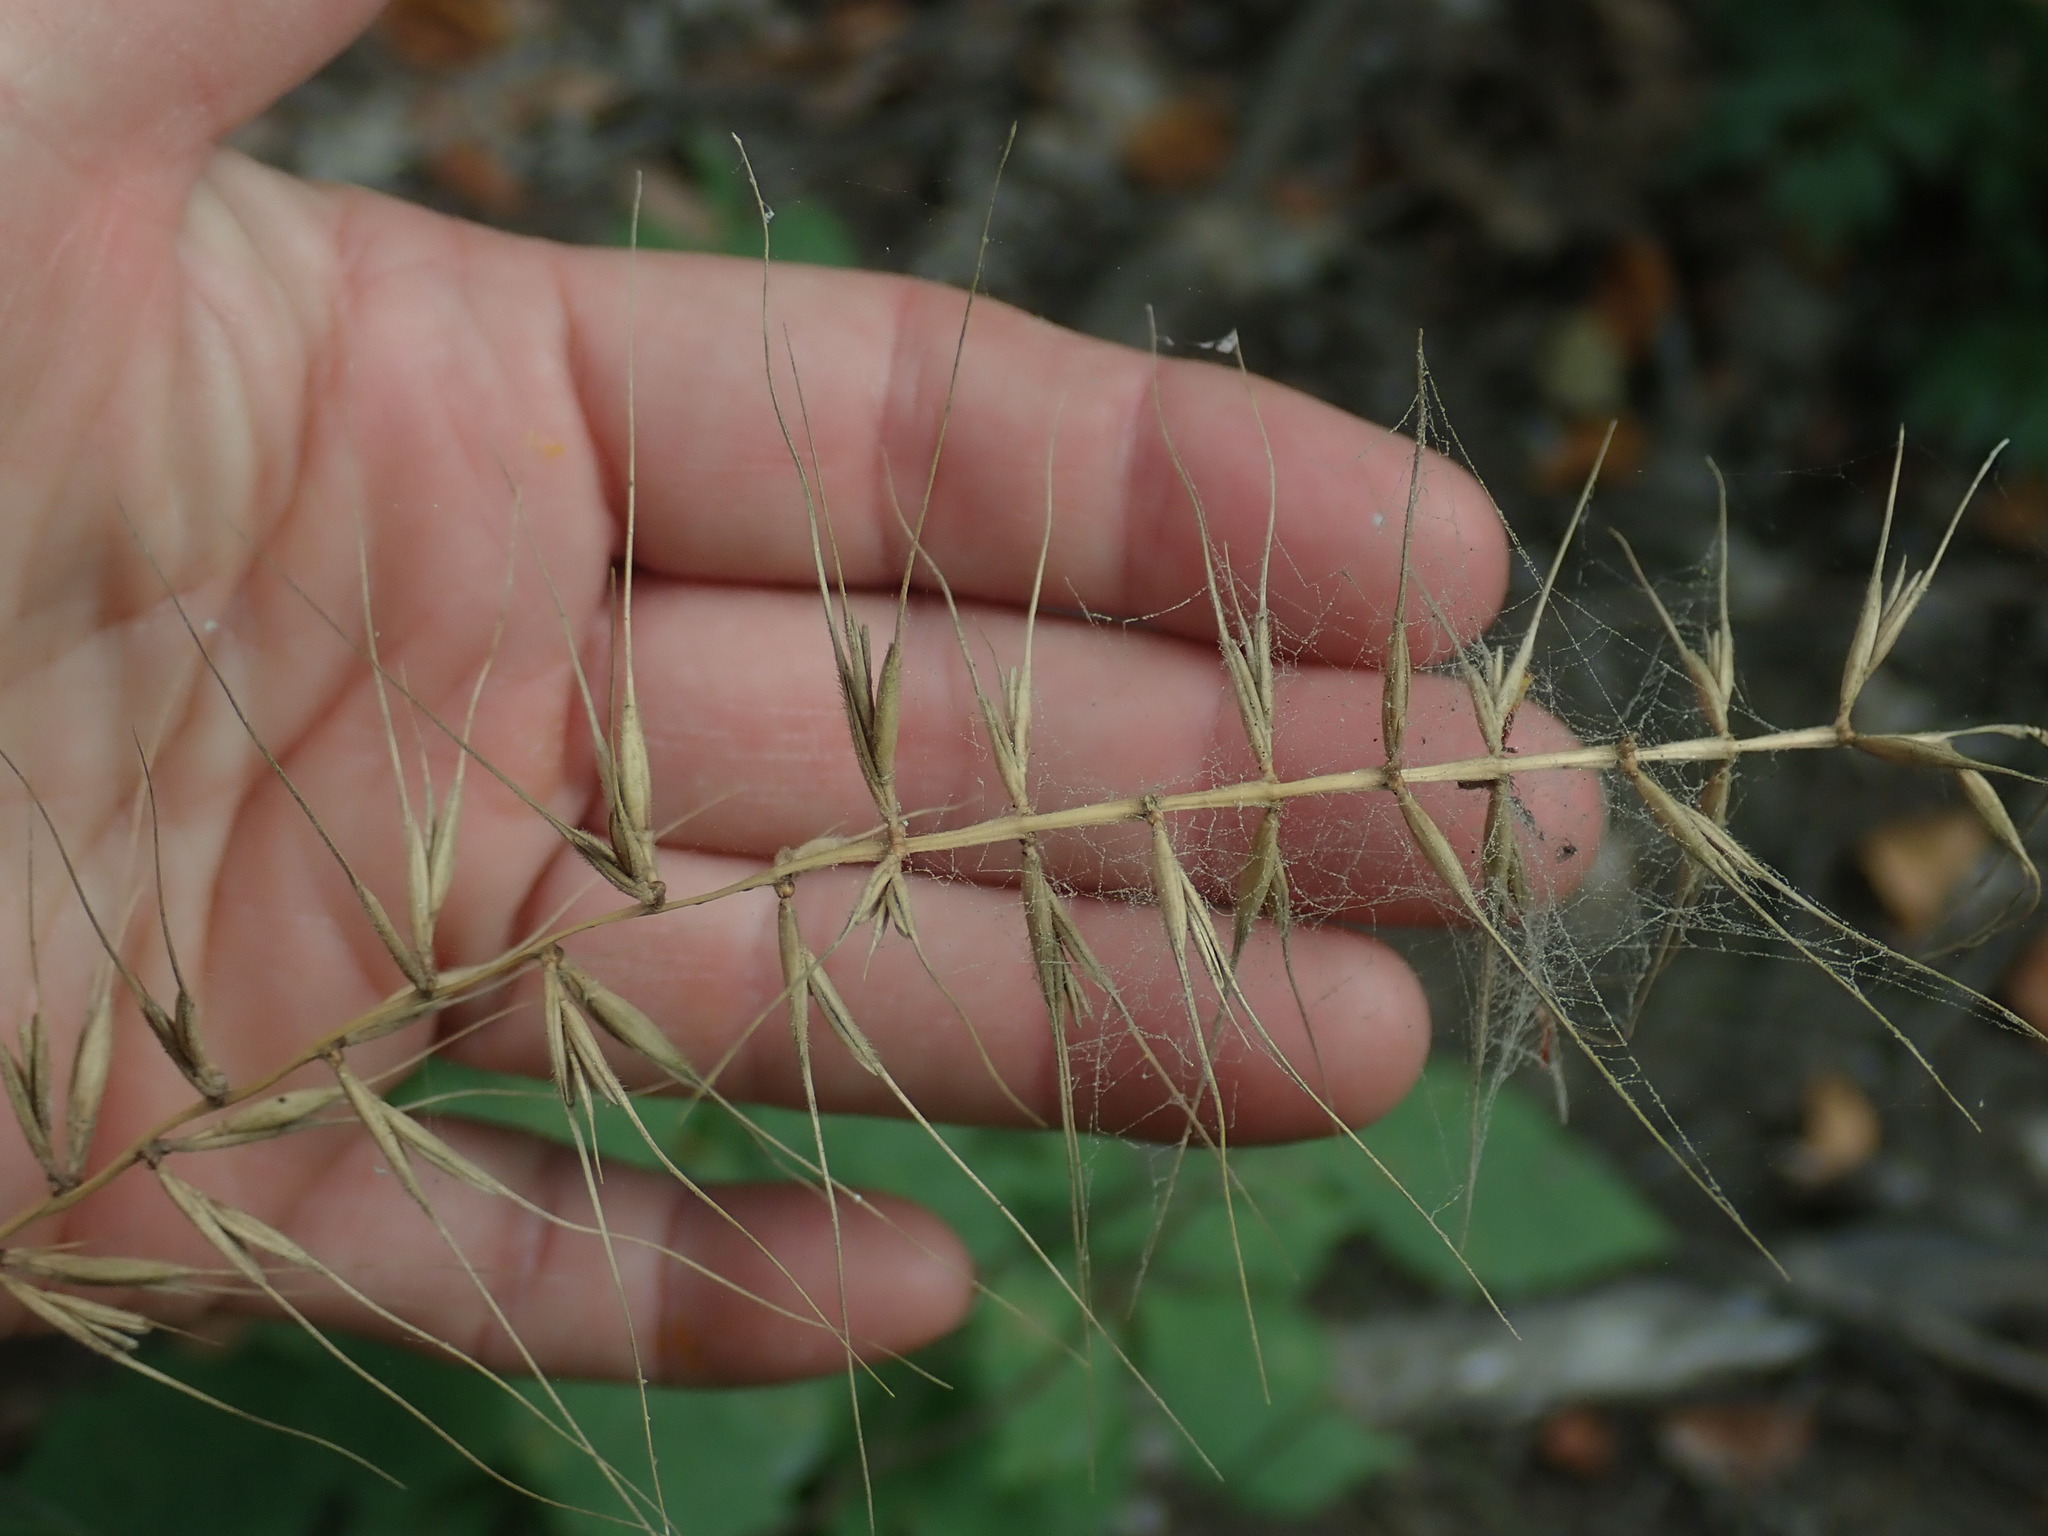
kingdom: Plantae
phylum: Tracheophyta
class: Liliopsida
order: Poales
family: Poaceae
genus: Elymus
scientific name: Elymus hystrix
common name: Bottlebrush grass
